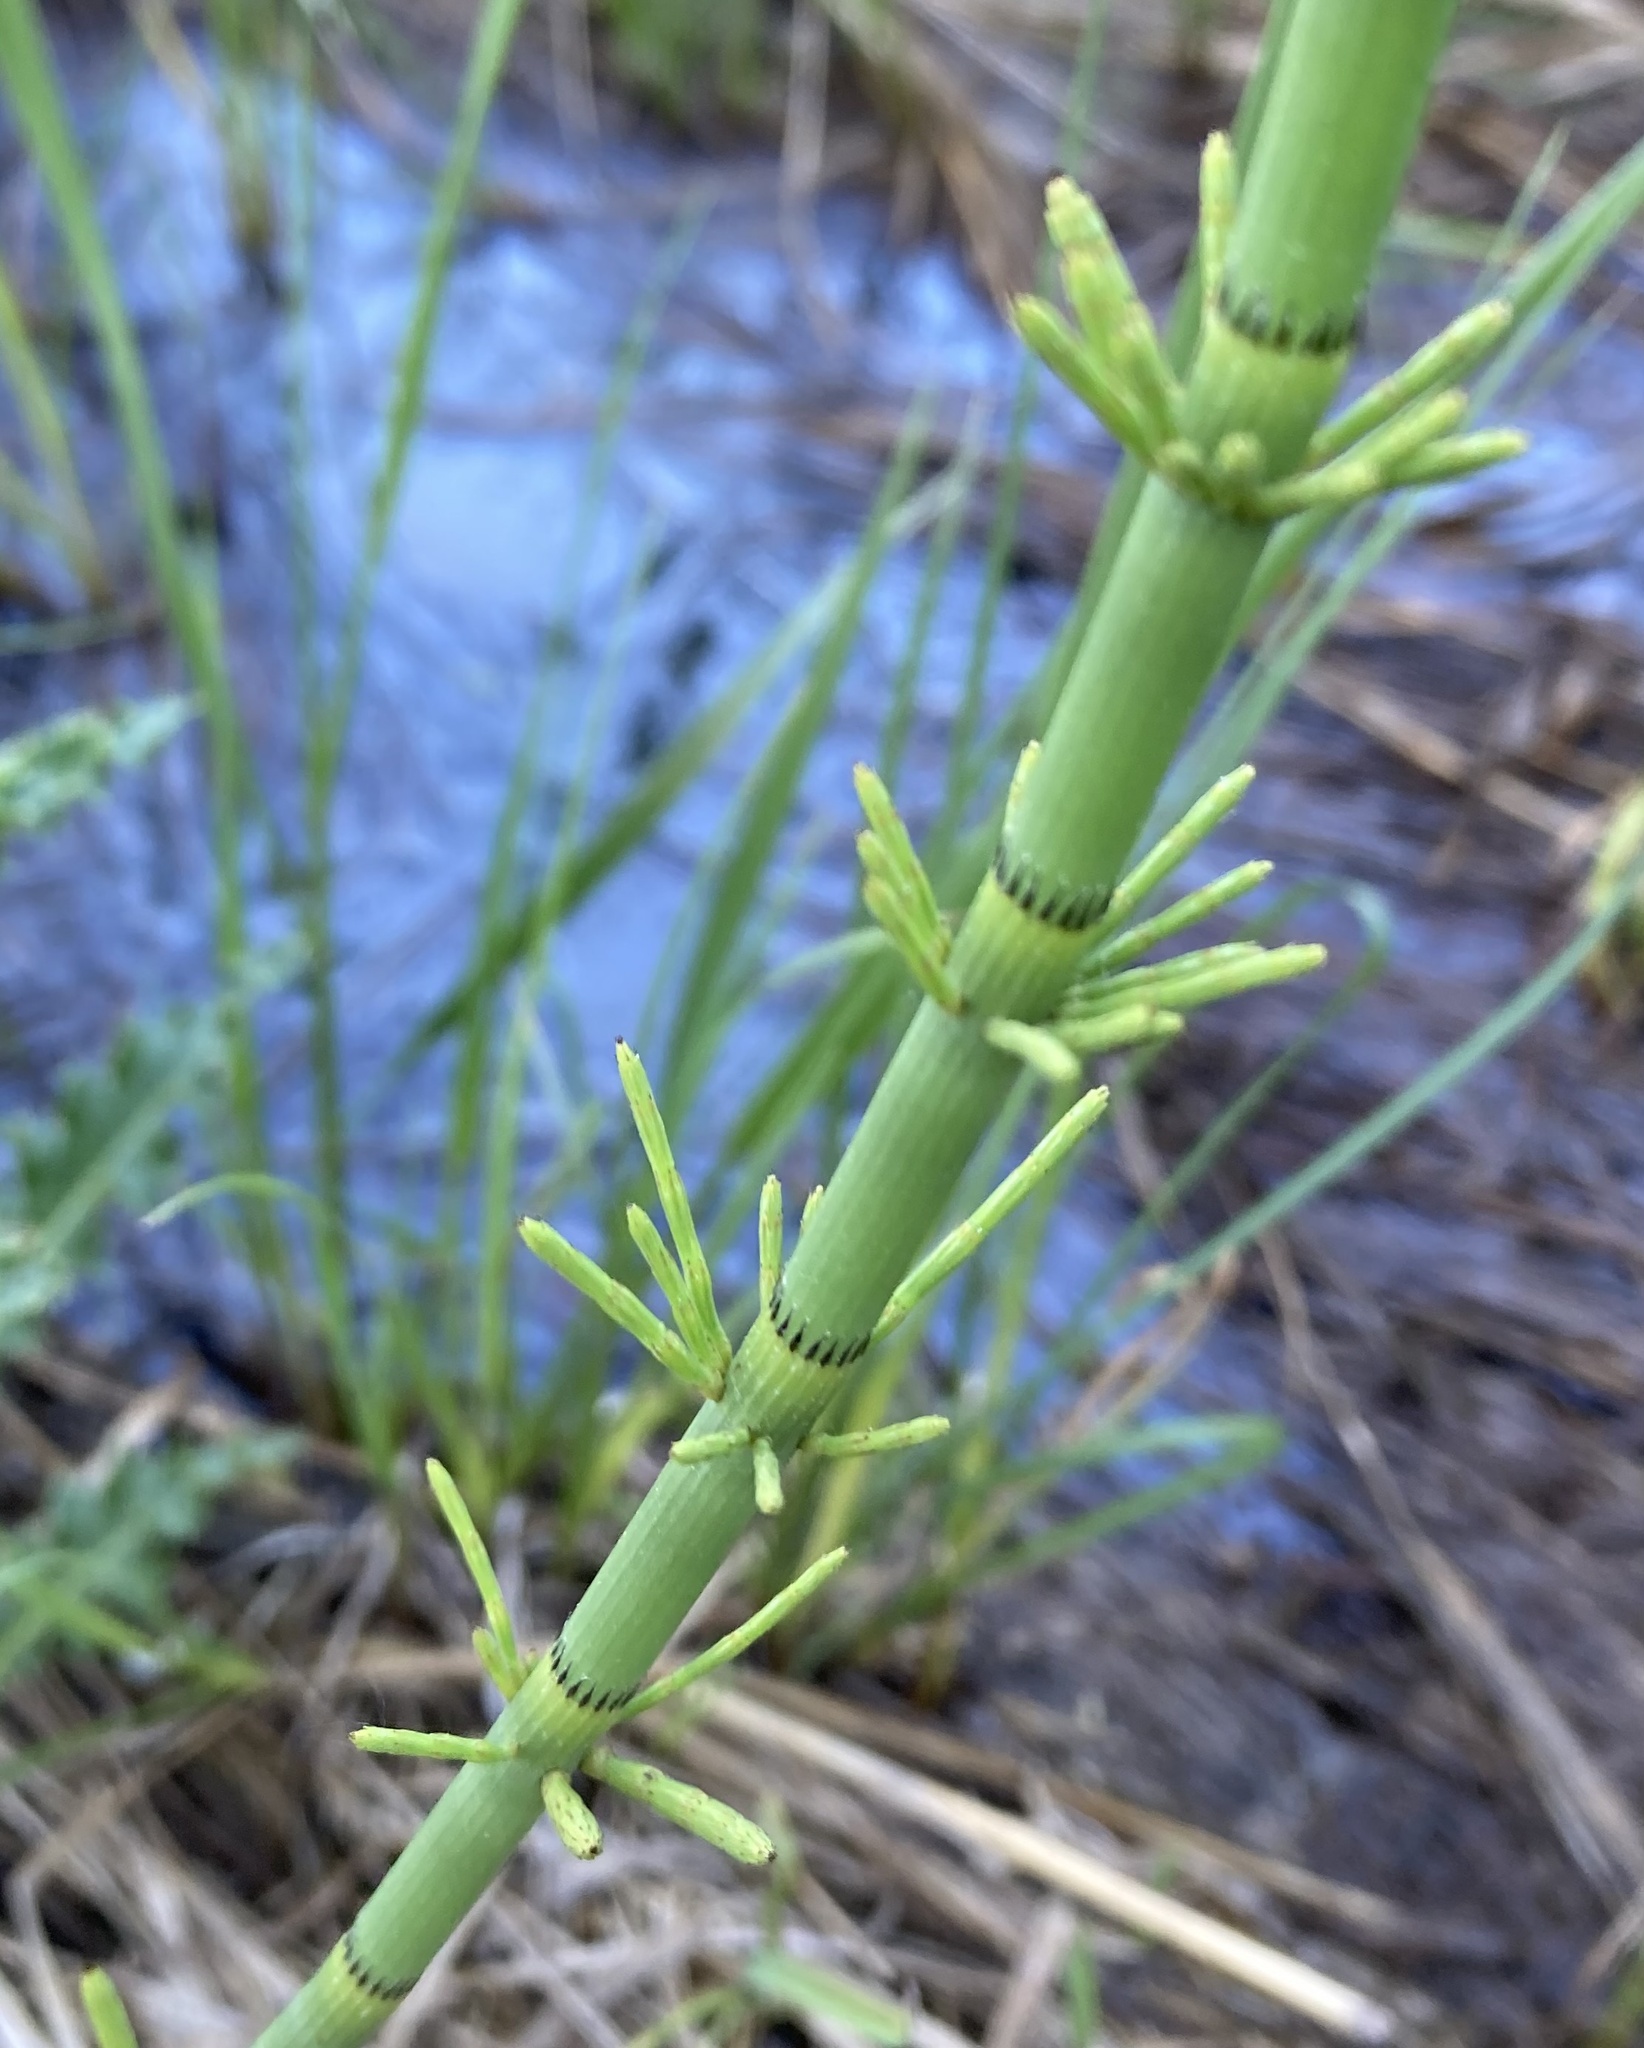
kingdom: Plantae
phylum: Tracheophyta
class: Polypodiopsida
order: Equisetales
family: Equisetaceae
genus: Equisetum
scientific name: Equisetum fluviatile
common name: Water horsetail
